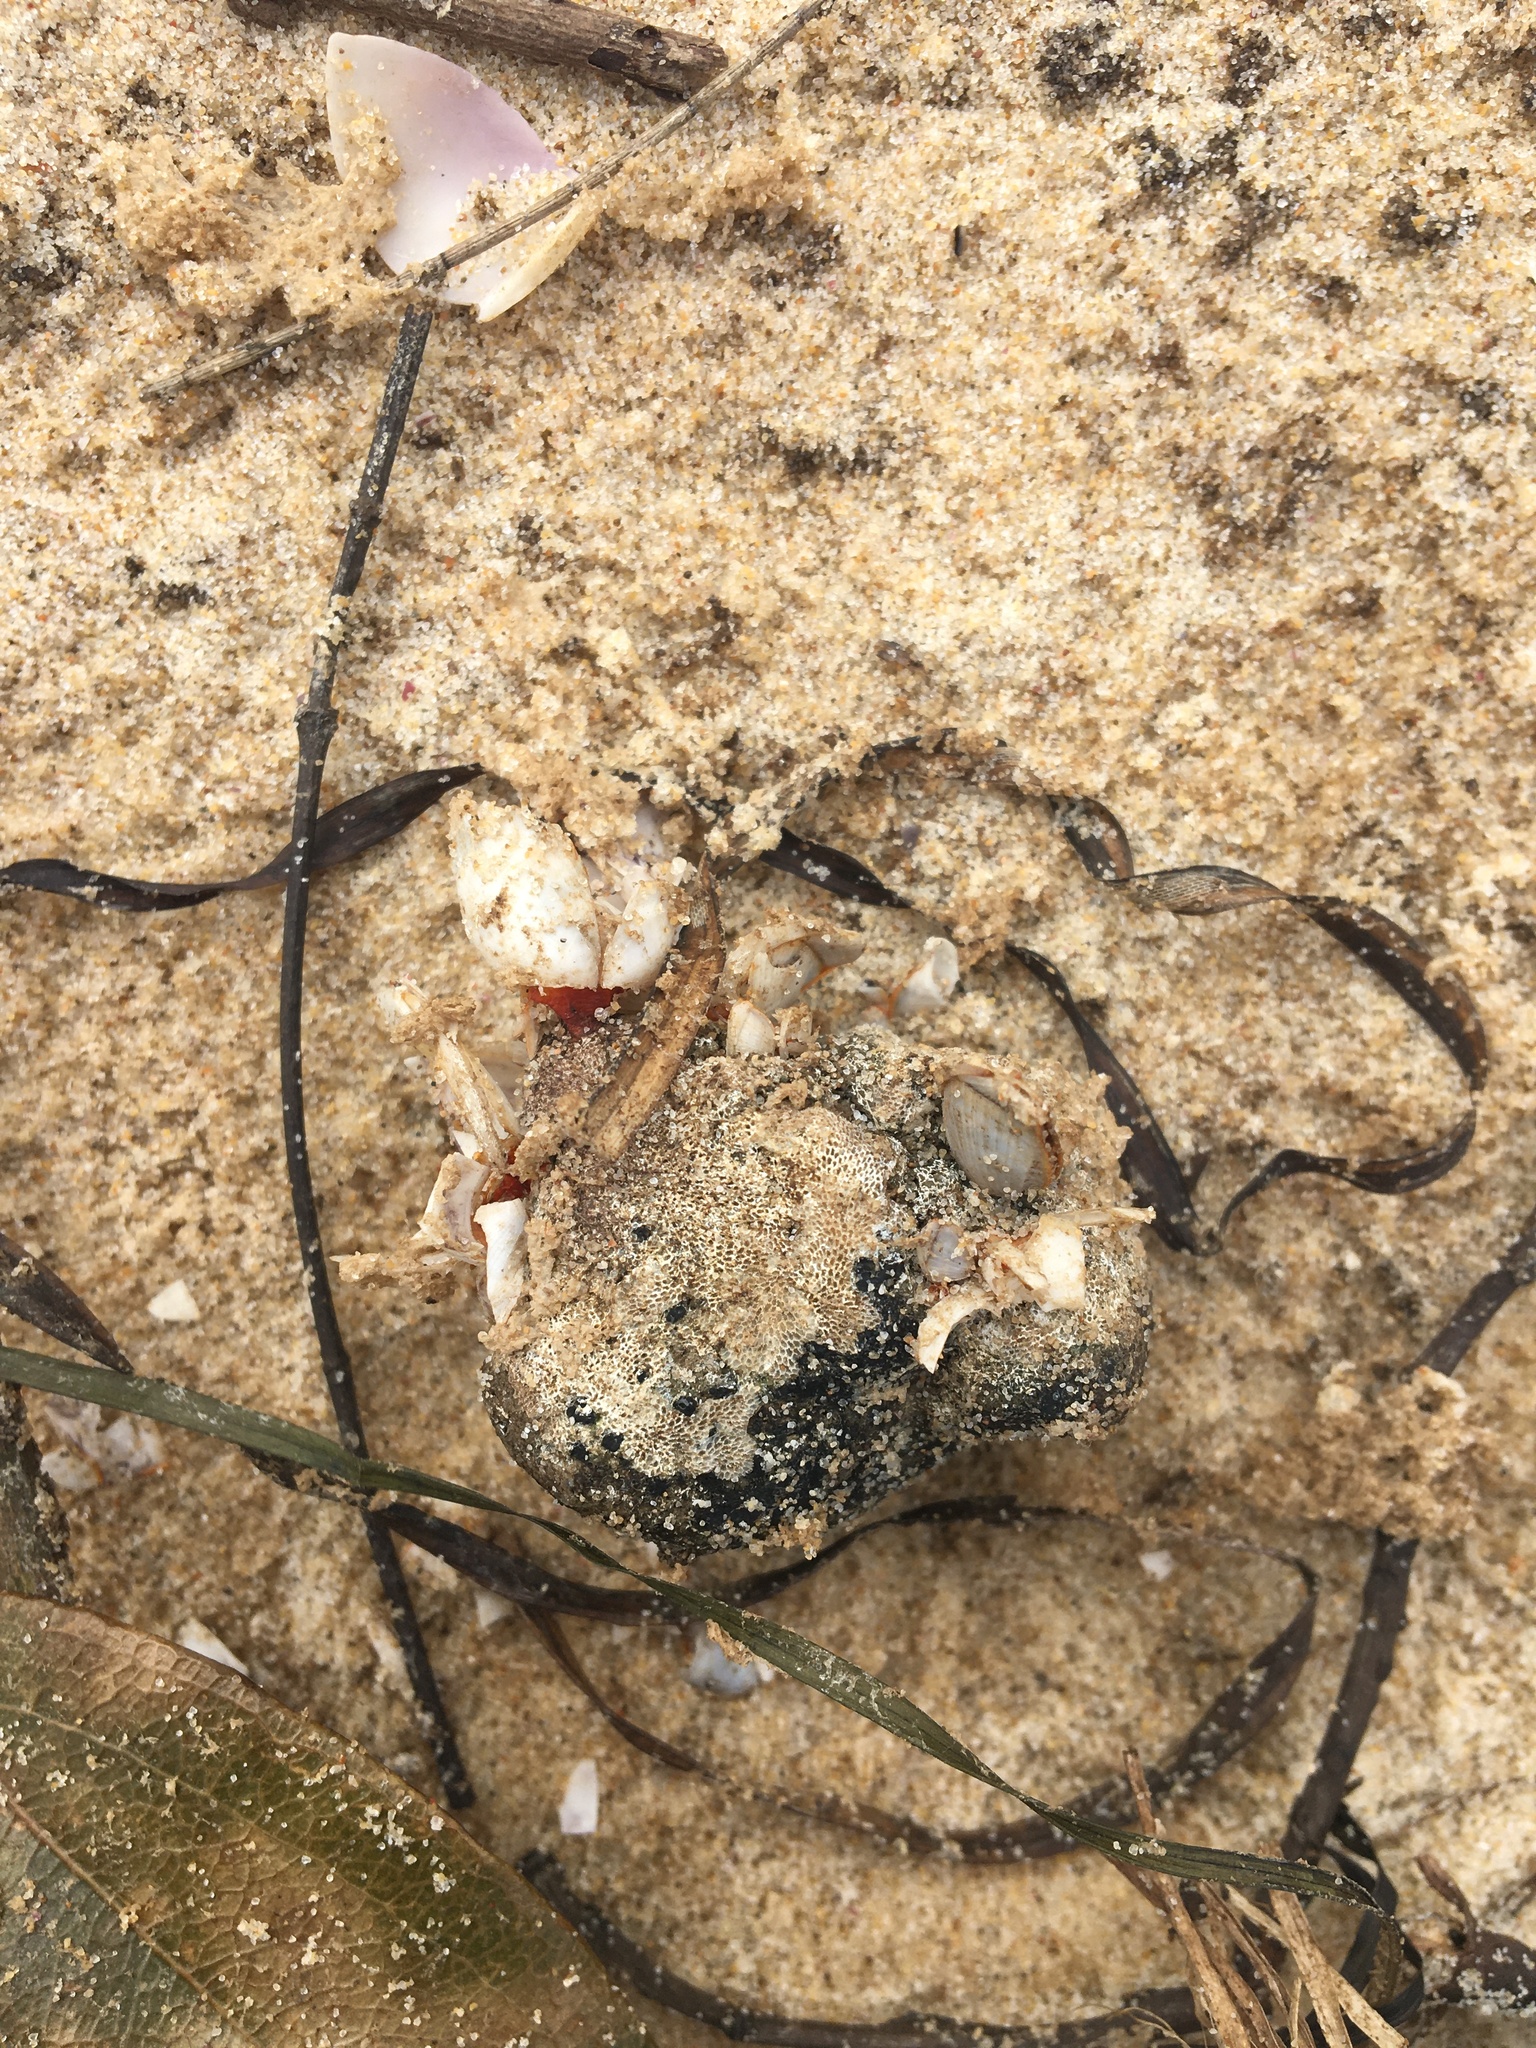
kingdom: Animalia
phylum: Arthropoda
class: Maxillopoda
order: Pedunculata
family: Lepadidae
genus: Lepas
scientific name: Lepas anserifera
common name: Goose barnacle
